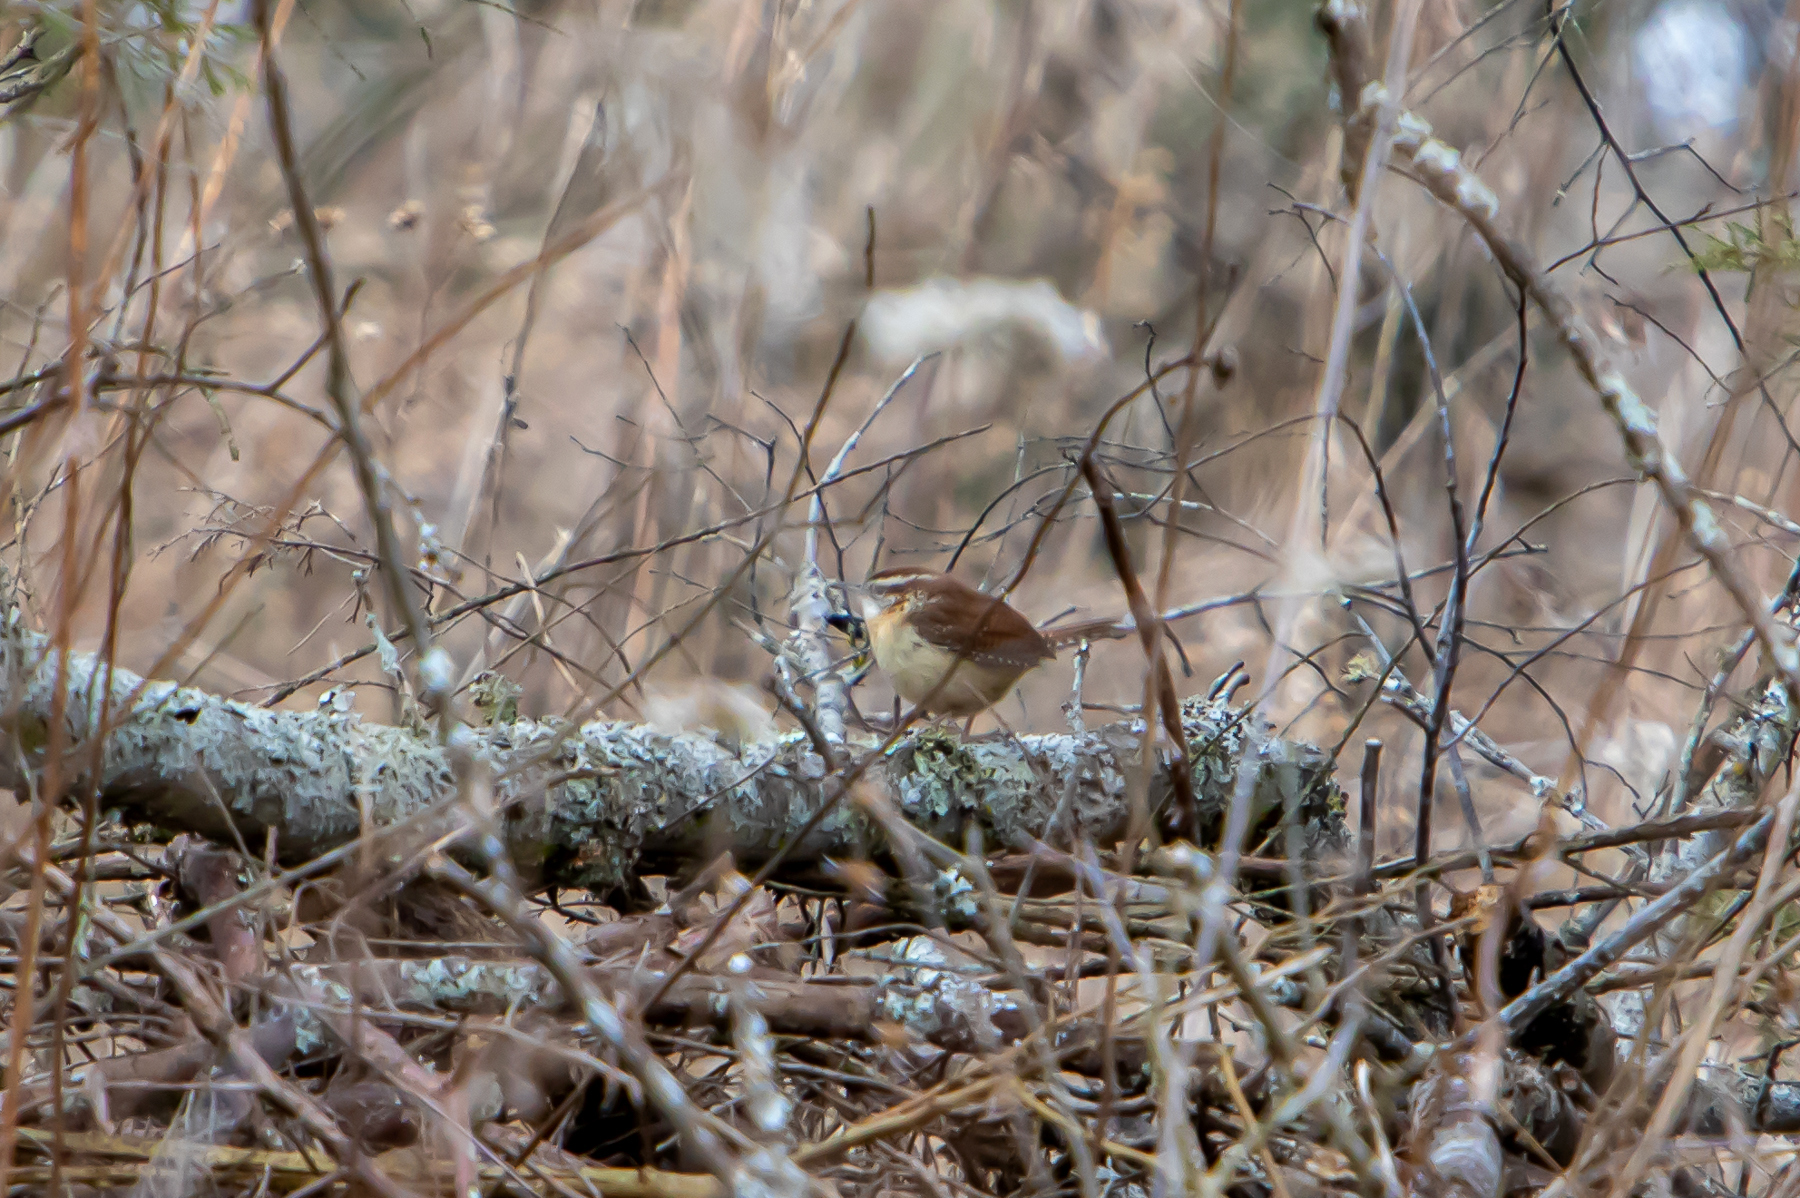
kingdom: Animalia
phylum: Chordata
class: Aves
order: Passeriformes
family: Troglodytidae
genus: Thryothorus
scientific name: Thryothorus ludovicianus
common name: Carolina wren
